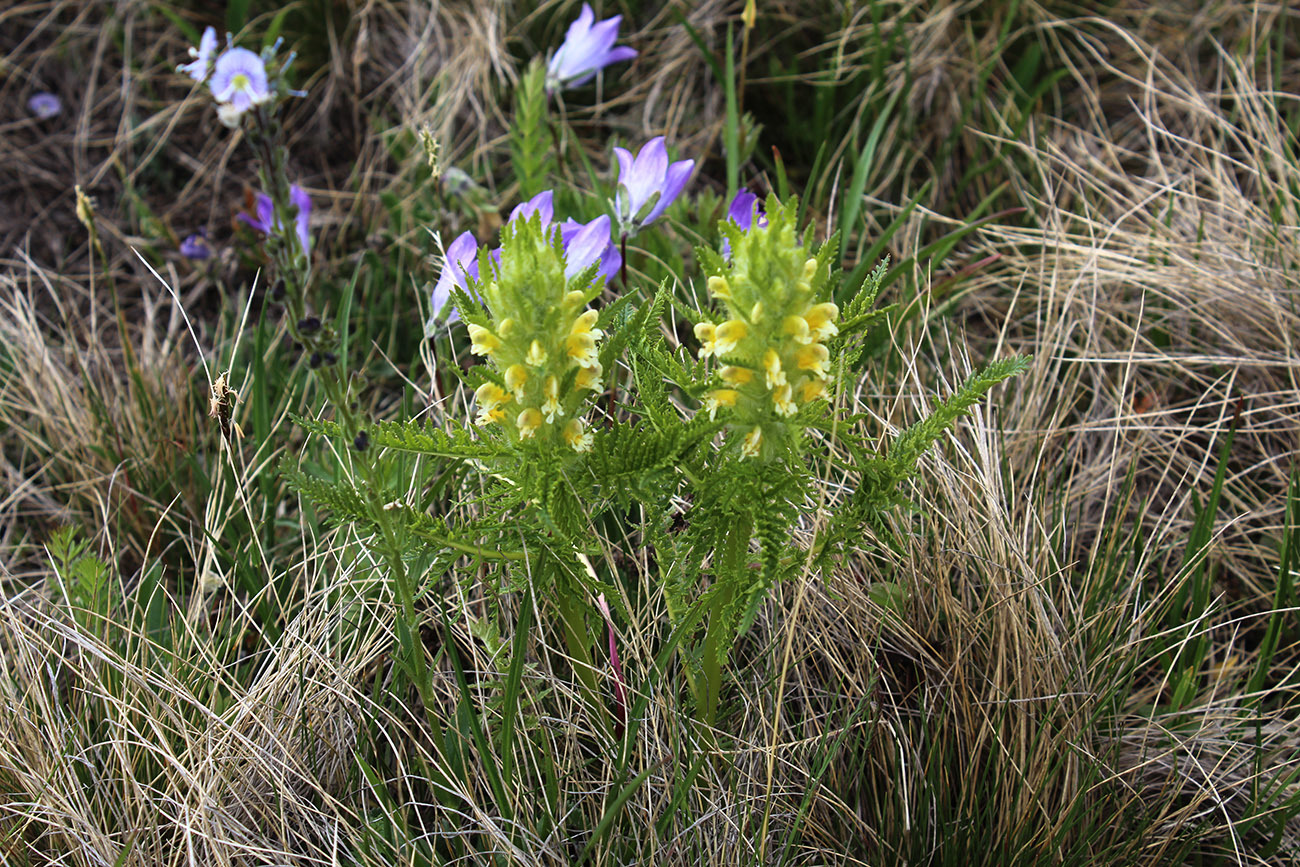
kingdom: Plantae
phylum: Tracheophyta
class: Magnoliopsida
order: Lamiales
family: Orobanchaceae
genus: Pedicularis
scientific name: Pedicularis condensata
